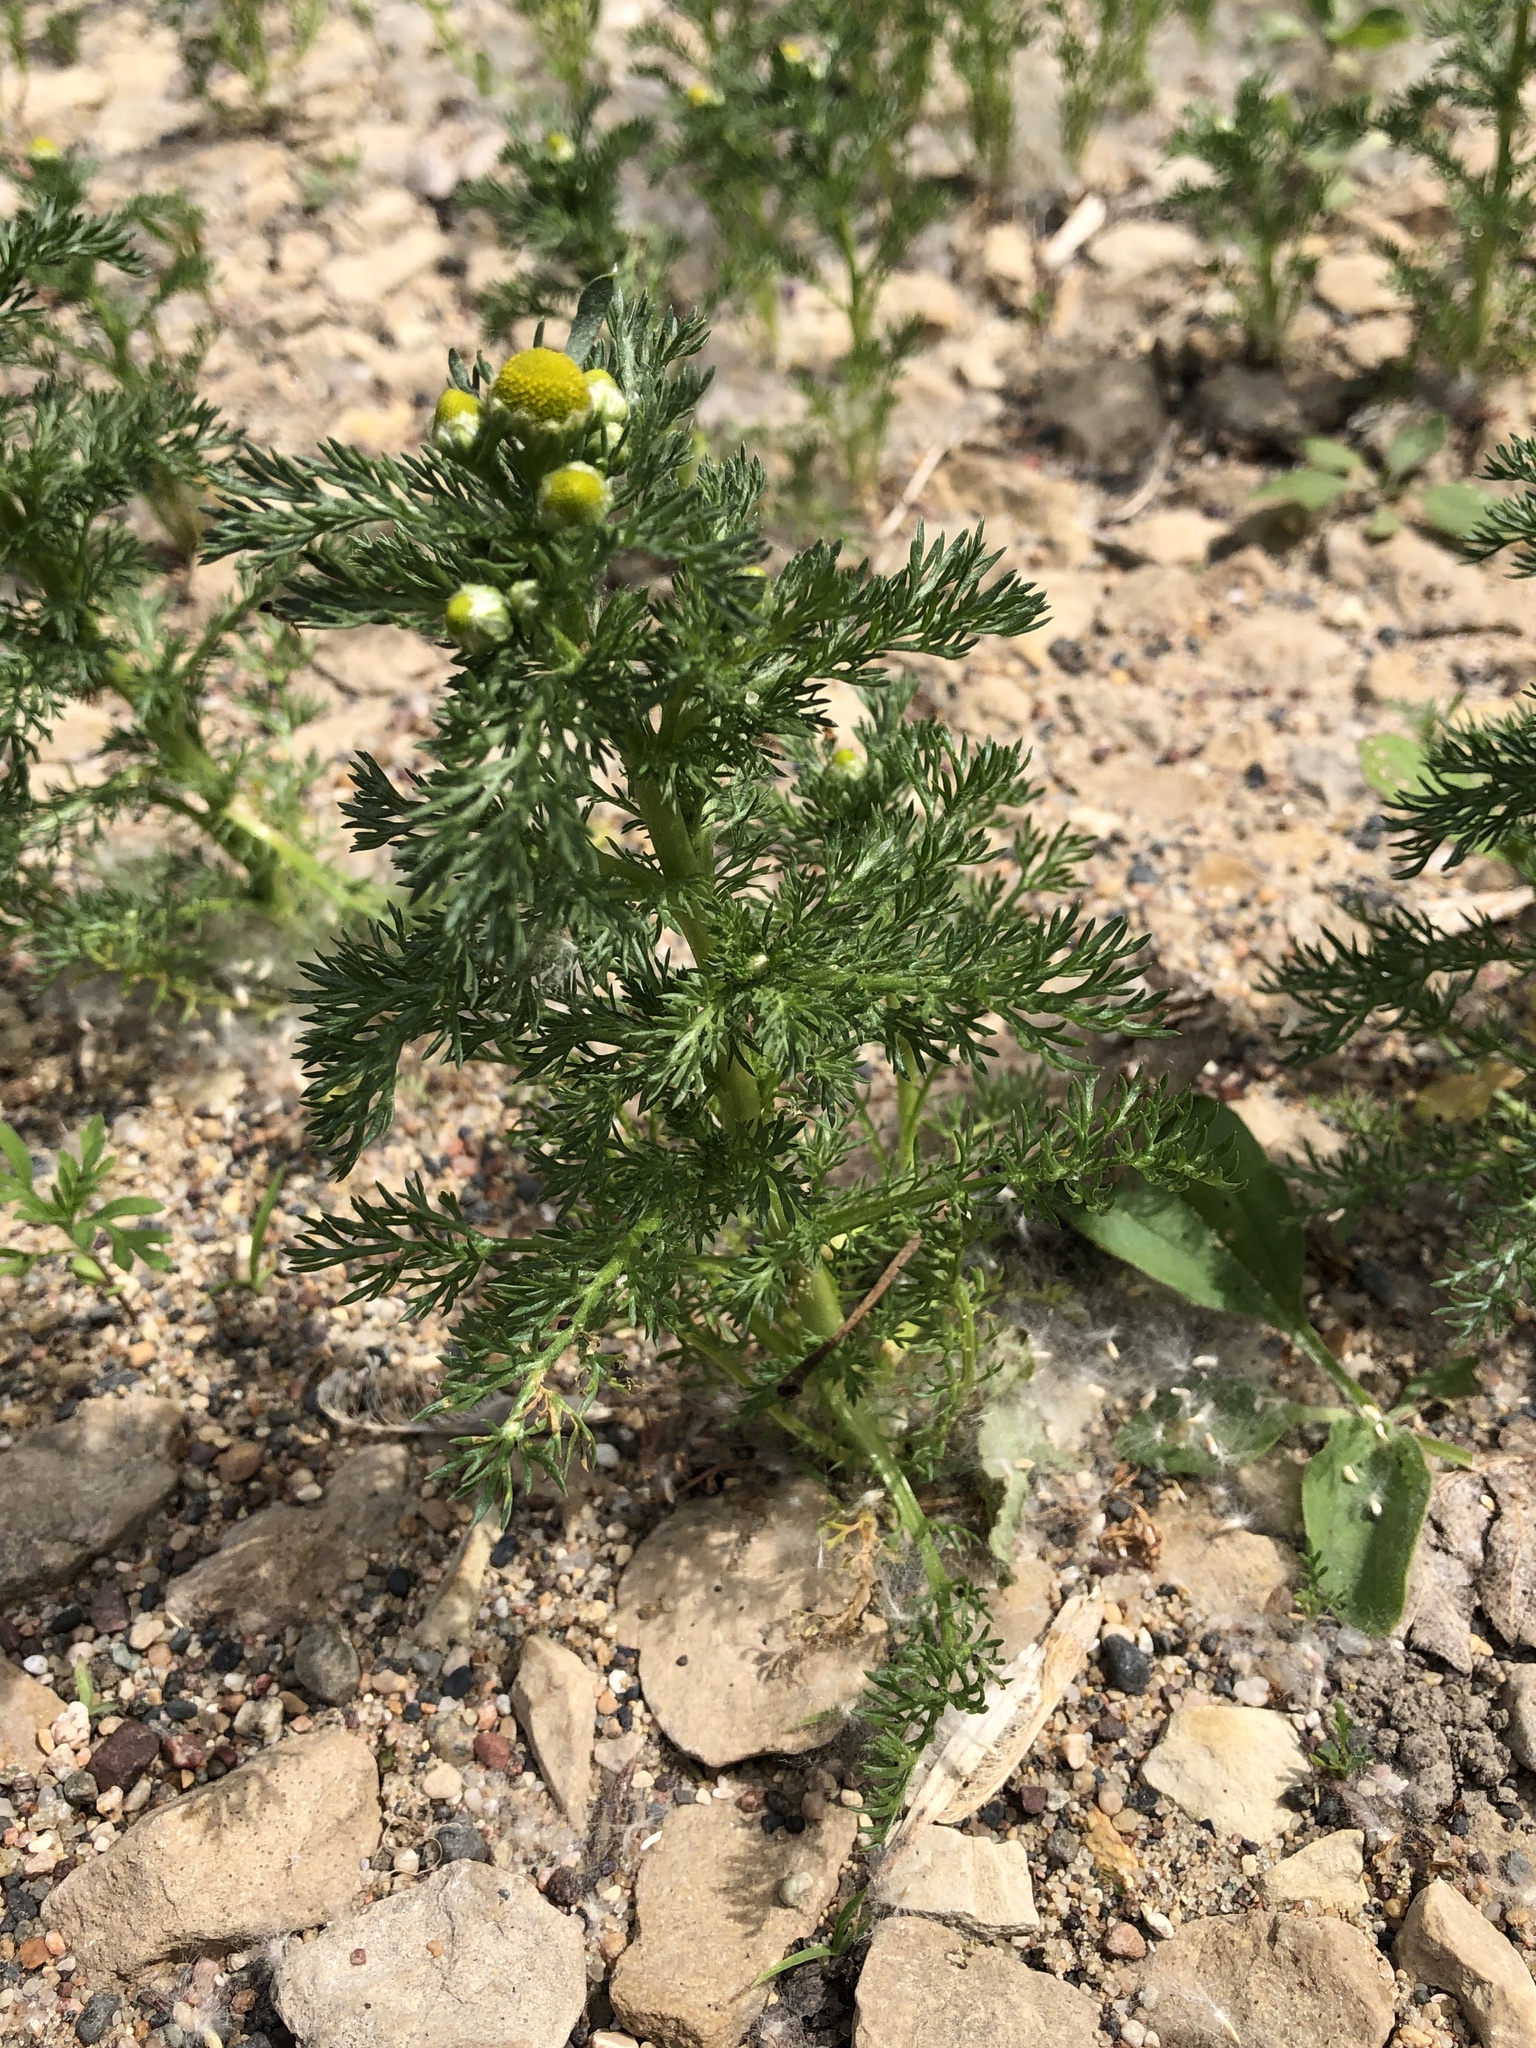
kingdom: Plantae
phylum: Tracheophyta
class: Magnoliopsida
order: Asterales
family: Asteraceae
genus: Matricaria
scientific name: Matricaria discoidea
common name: Disc mayweed
